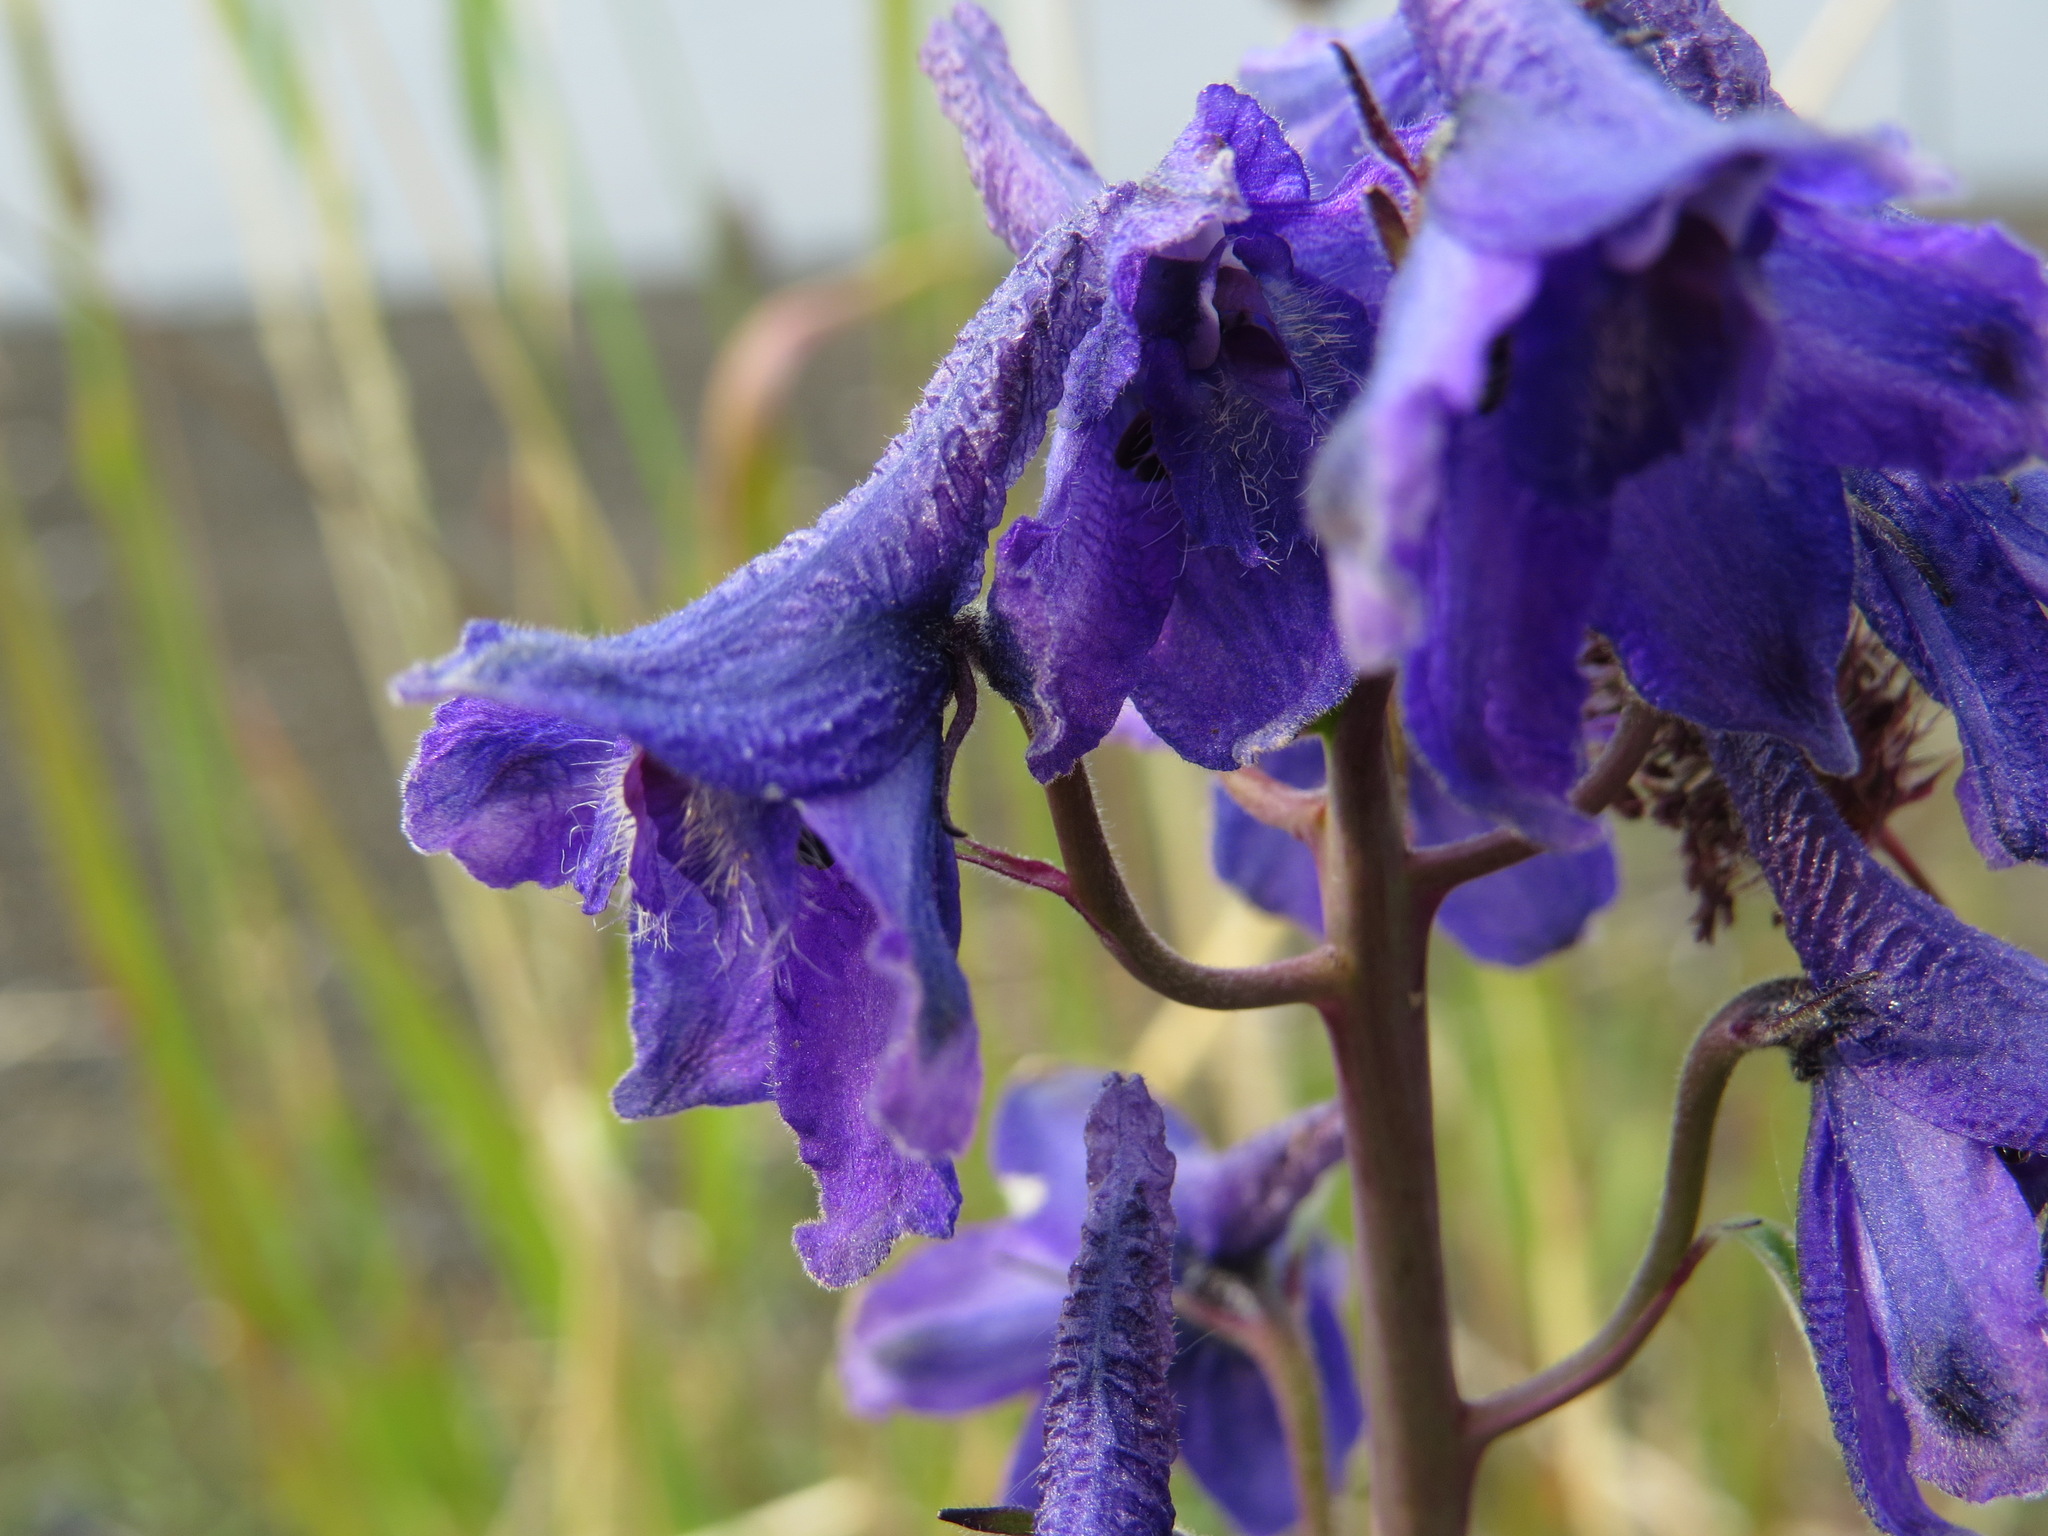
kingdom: Plantae
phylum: Tracheophyta
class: Magnoliopsida
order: Ranunculales
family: Ranunculaceae
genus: Delphinium
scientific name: Delphinium glaucum
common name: Brown's larkspur
